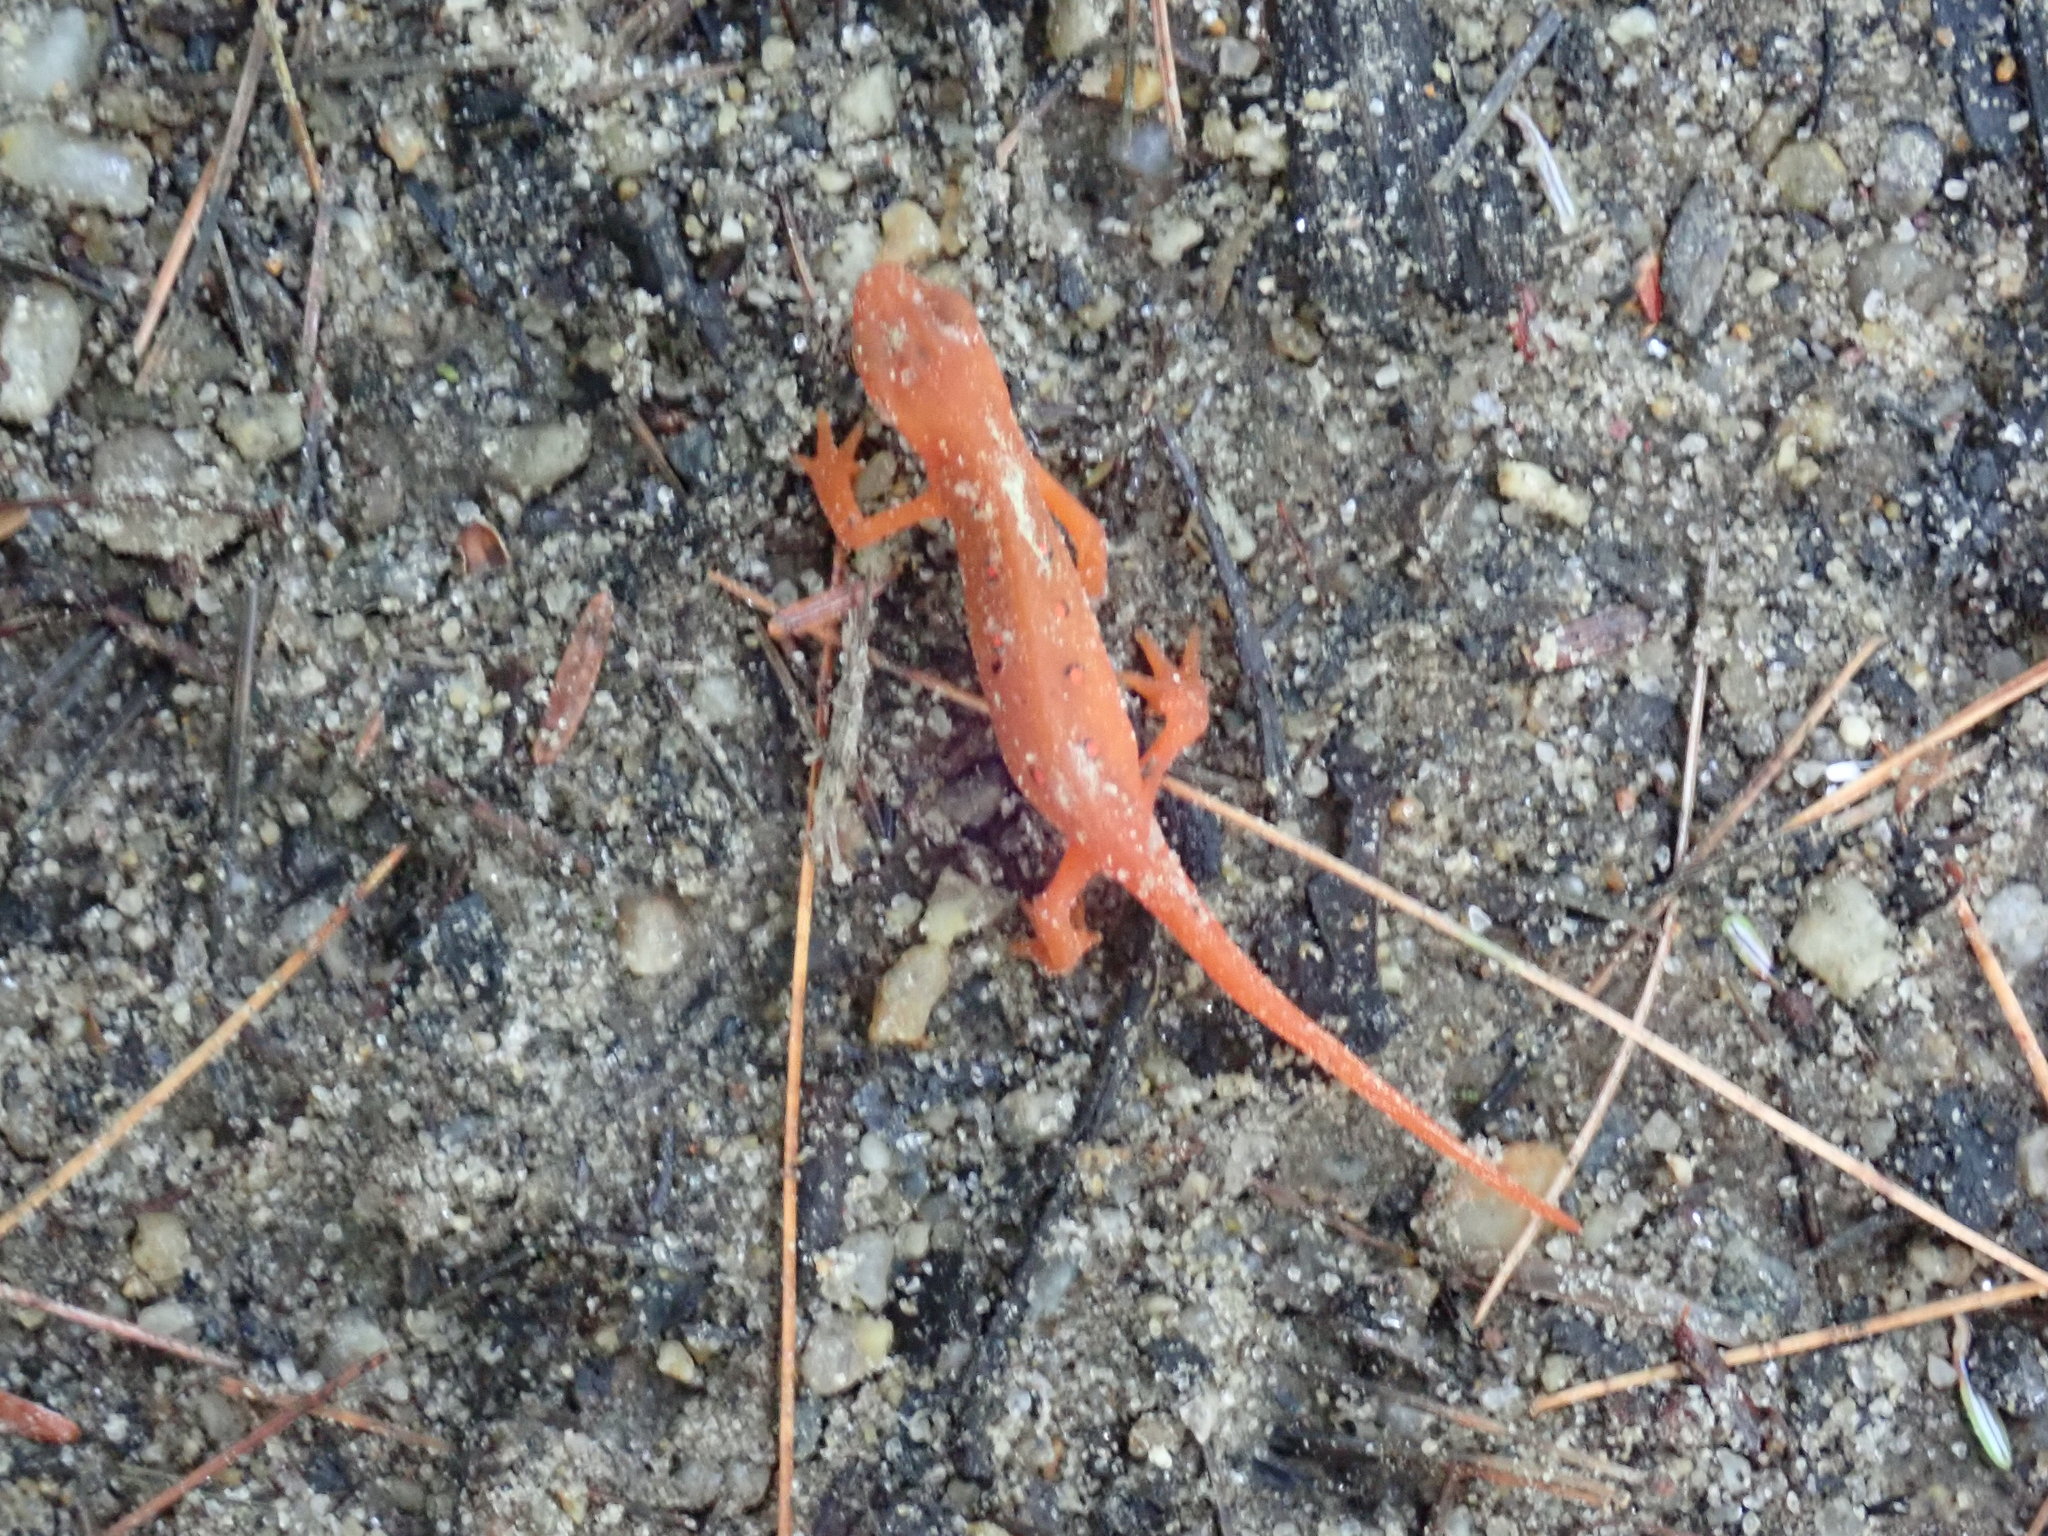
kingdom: Animalia
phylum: Chordata
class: Amphibia
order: Caudata
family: Salamandridae
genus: Notophthalmus
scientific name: Notophthalmus viridescens
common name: Eastern newt
